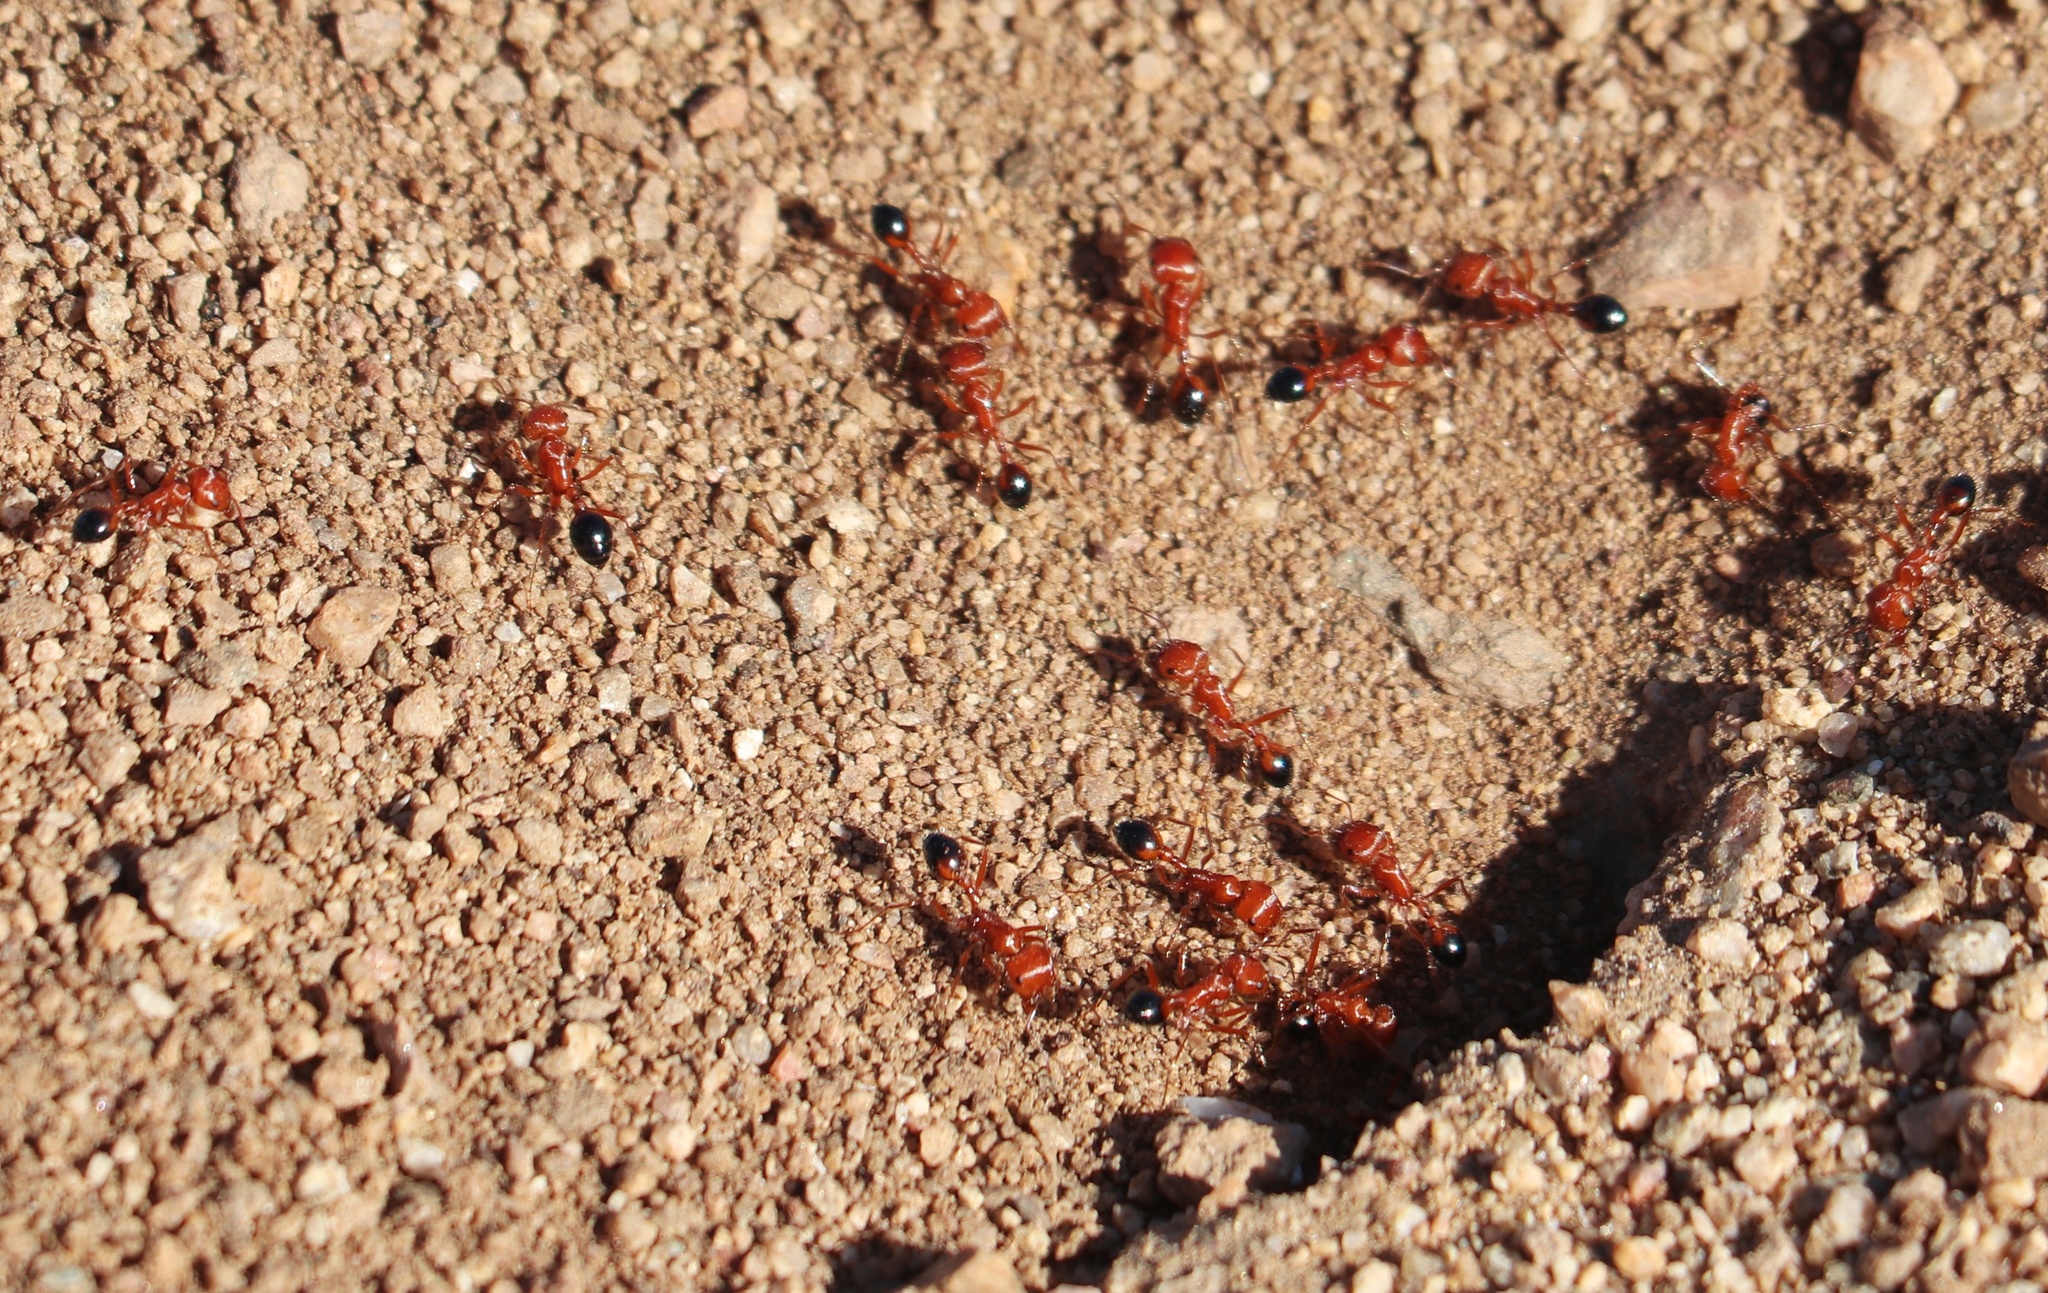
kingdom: Animalia
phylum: Arthropoda
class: Insecta
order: Hymenoptera
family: Formicidae
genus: Pogonomyrmex
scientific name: Pogonomyrmex californicus
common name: California harvester ant
